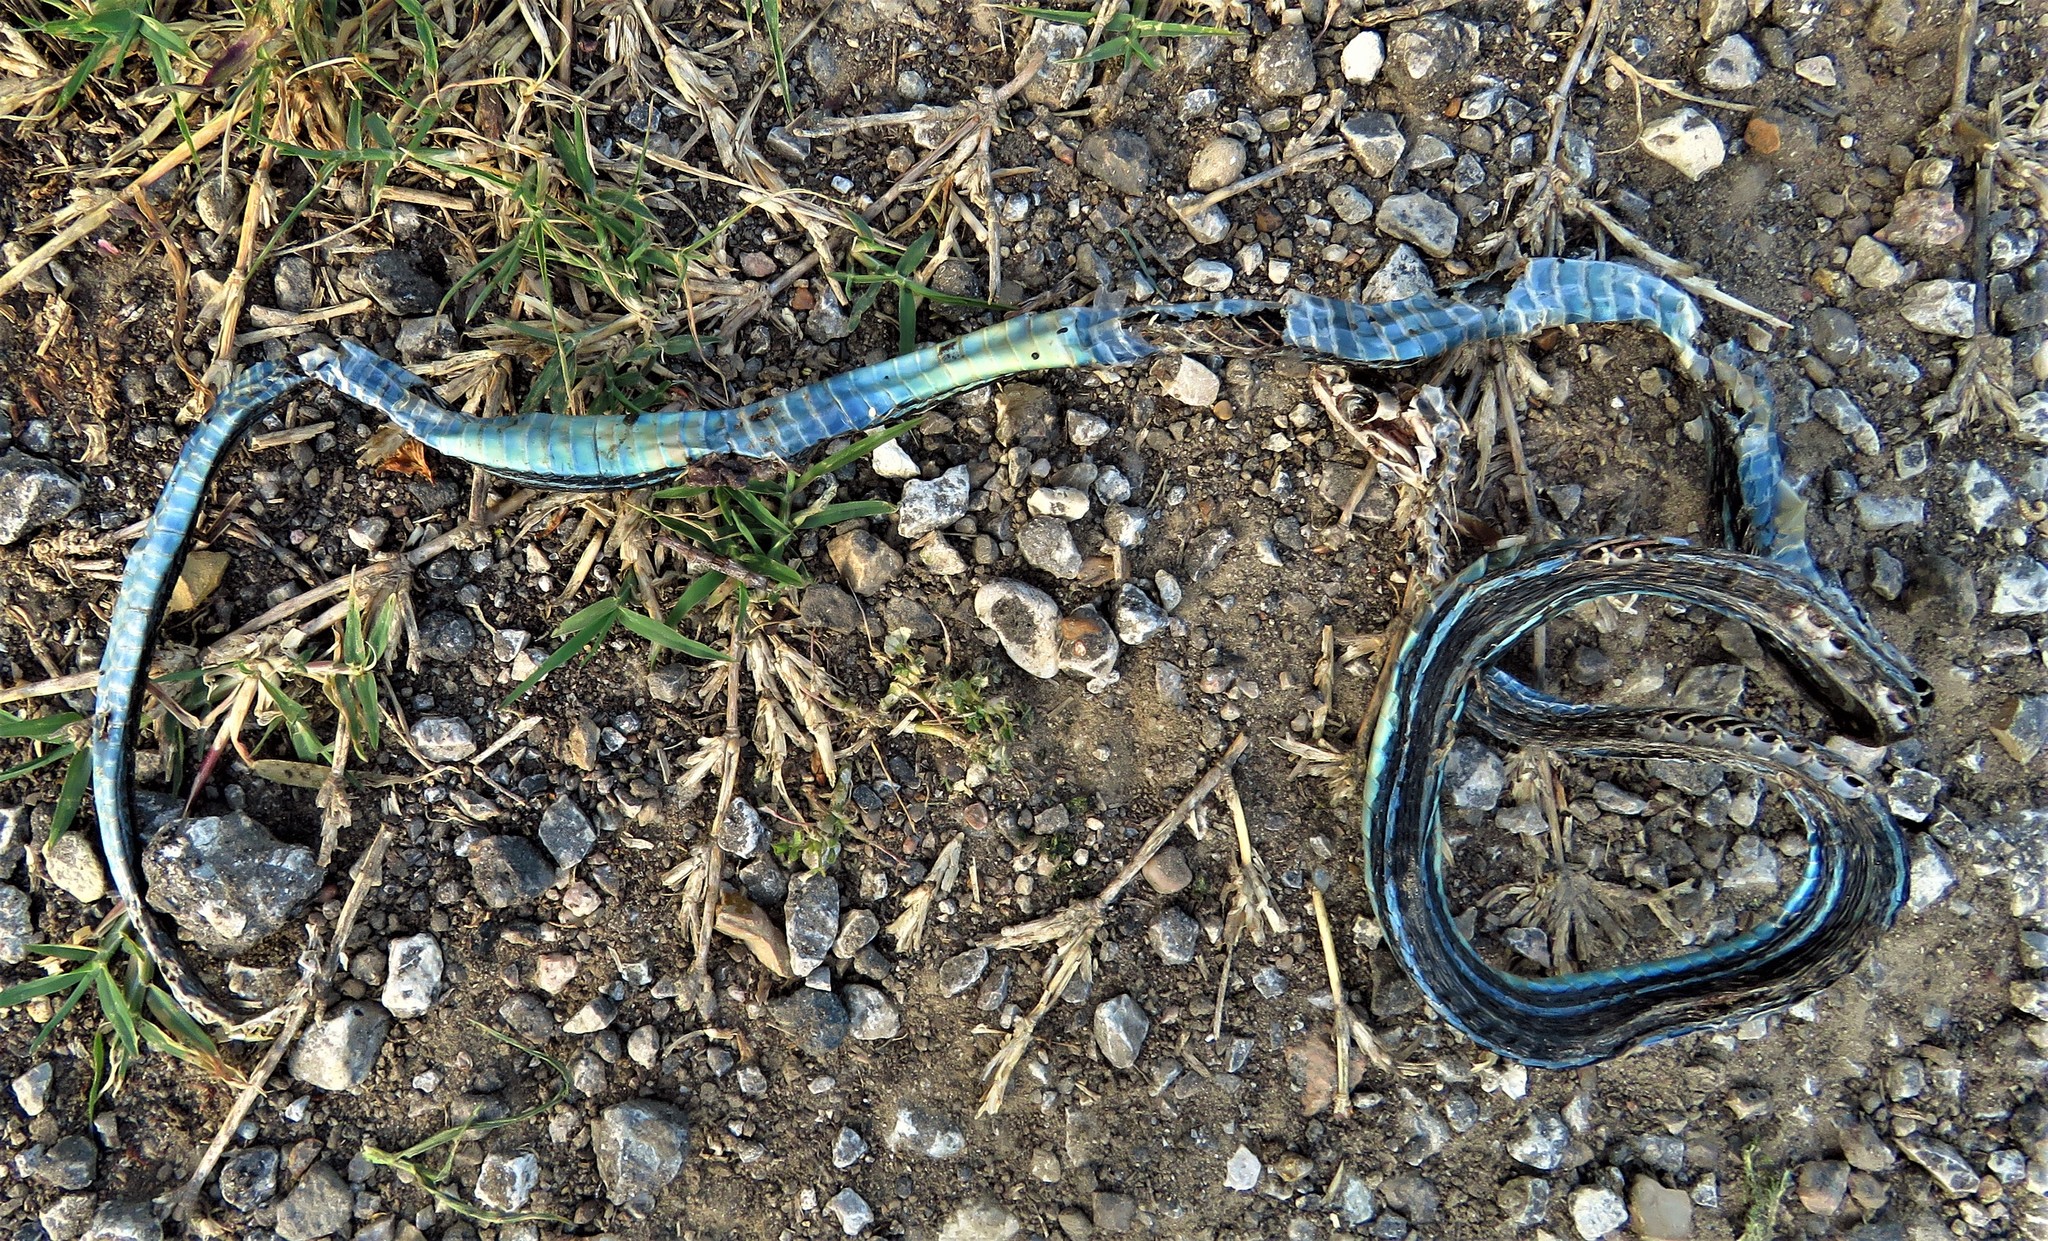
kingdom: Animalia
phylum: Chordata
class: Squamata
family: Colubridae
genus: Thamnophis
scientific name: Thamnophis proximus
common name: Western ribbon snake
